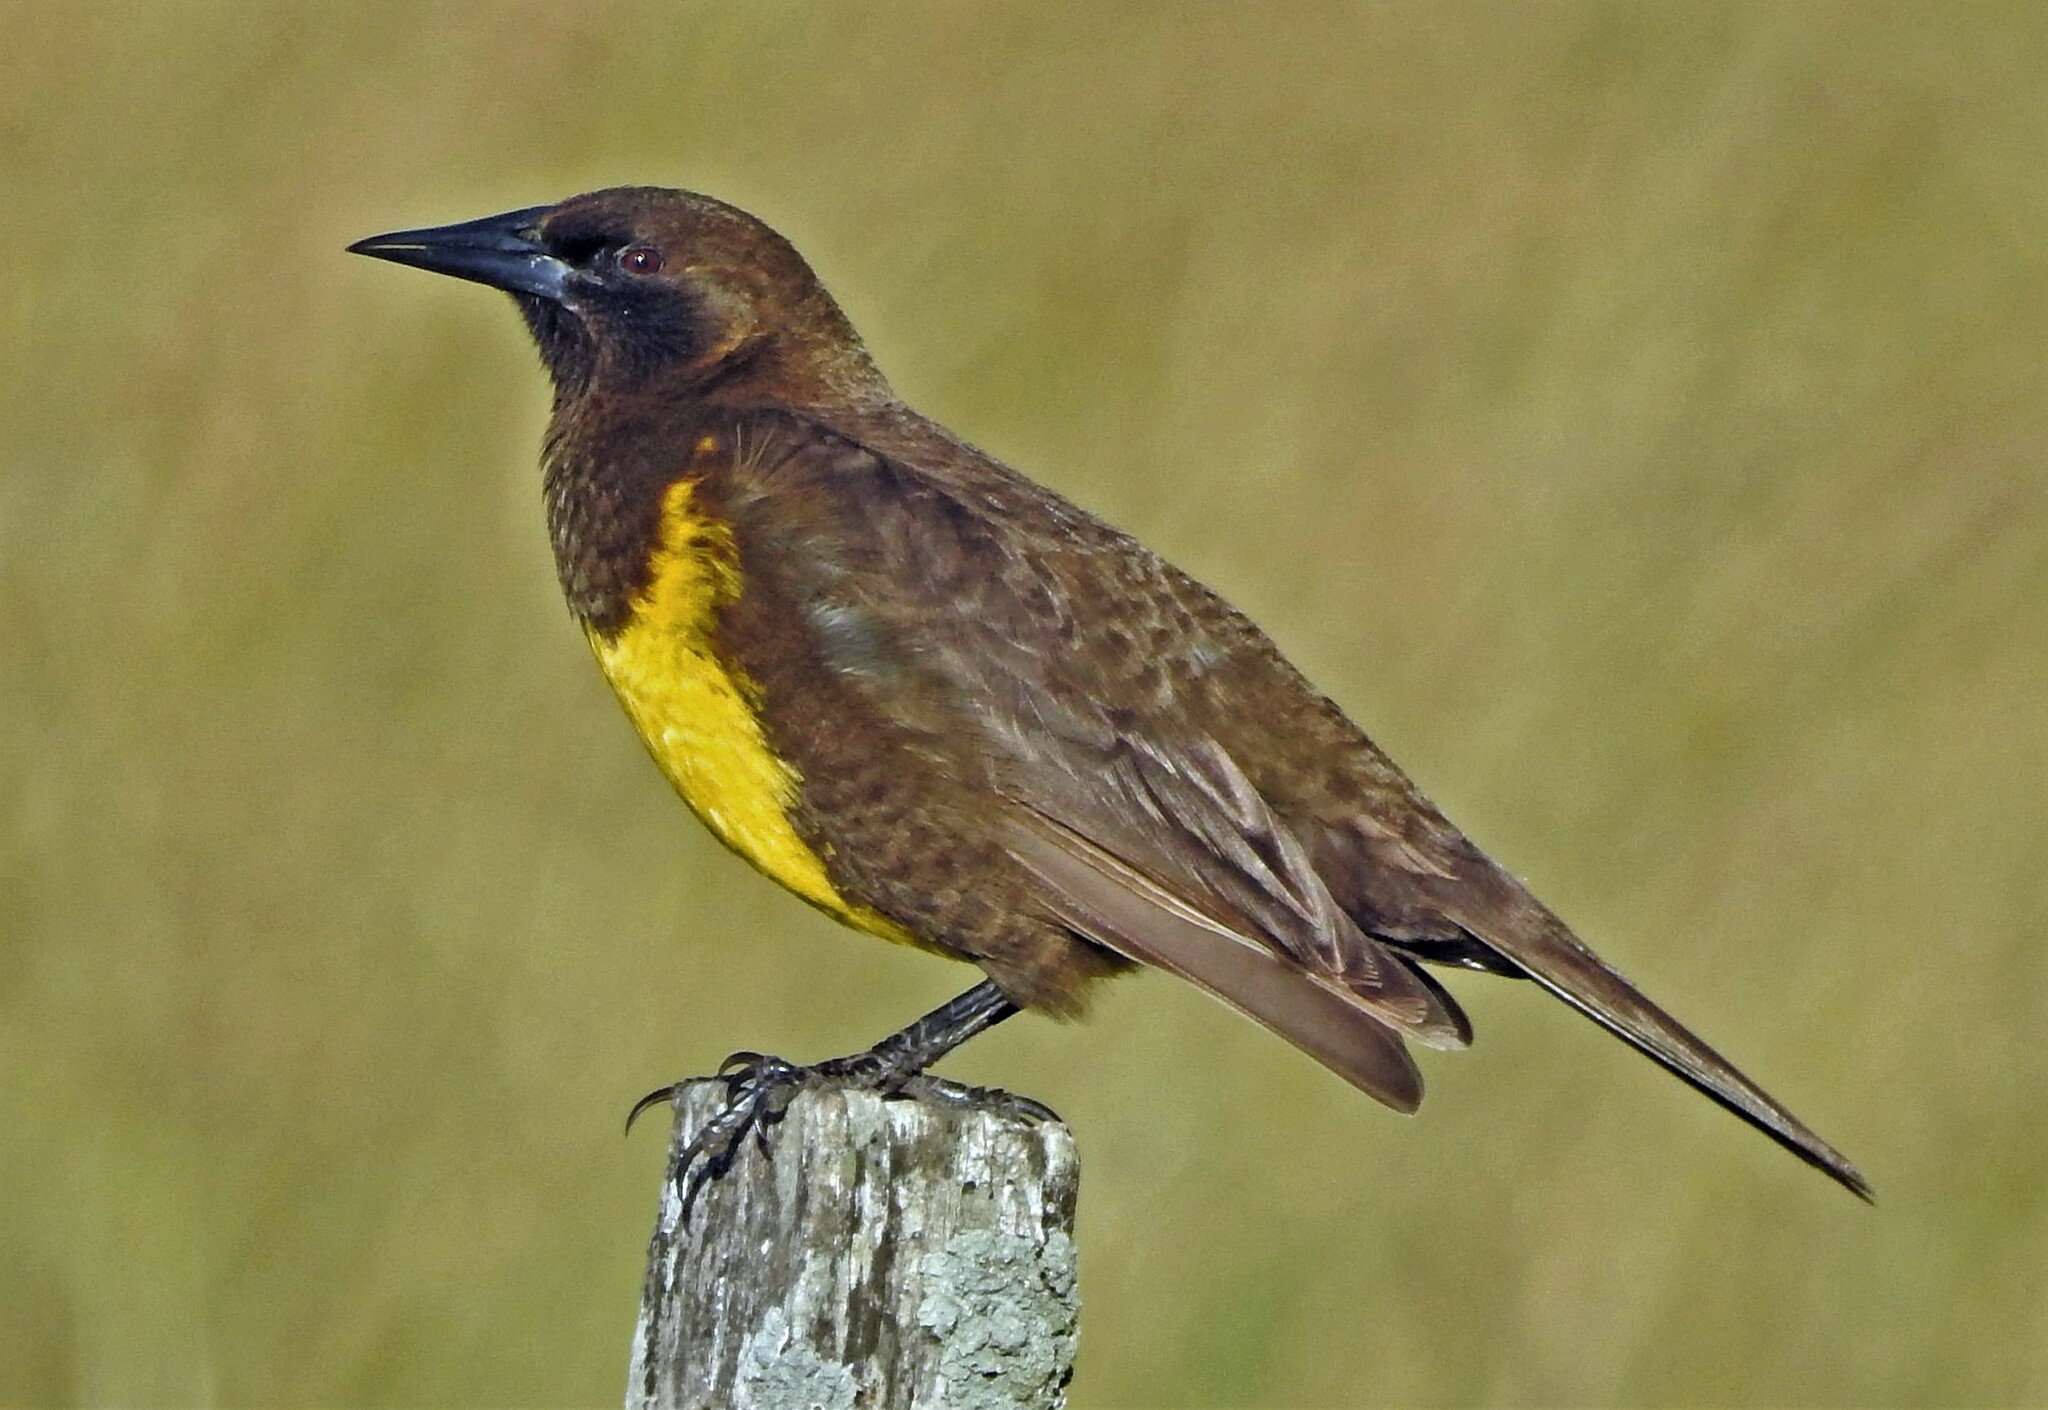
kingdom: Animalia
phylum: Chordata
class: Aves
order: Passeriformes
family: Icteridae
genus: Pseudoleistes
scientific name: Pseudoleistes virescens
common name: Brown-and-yellow marshbird
